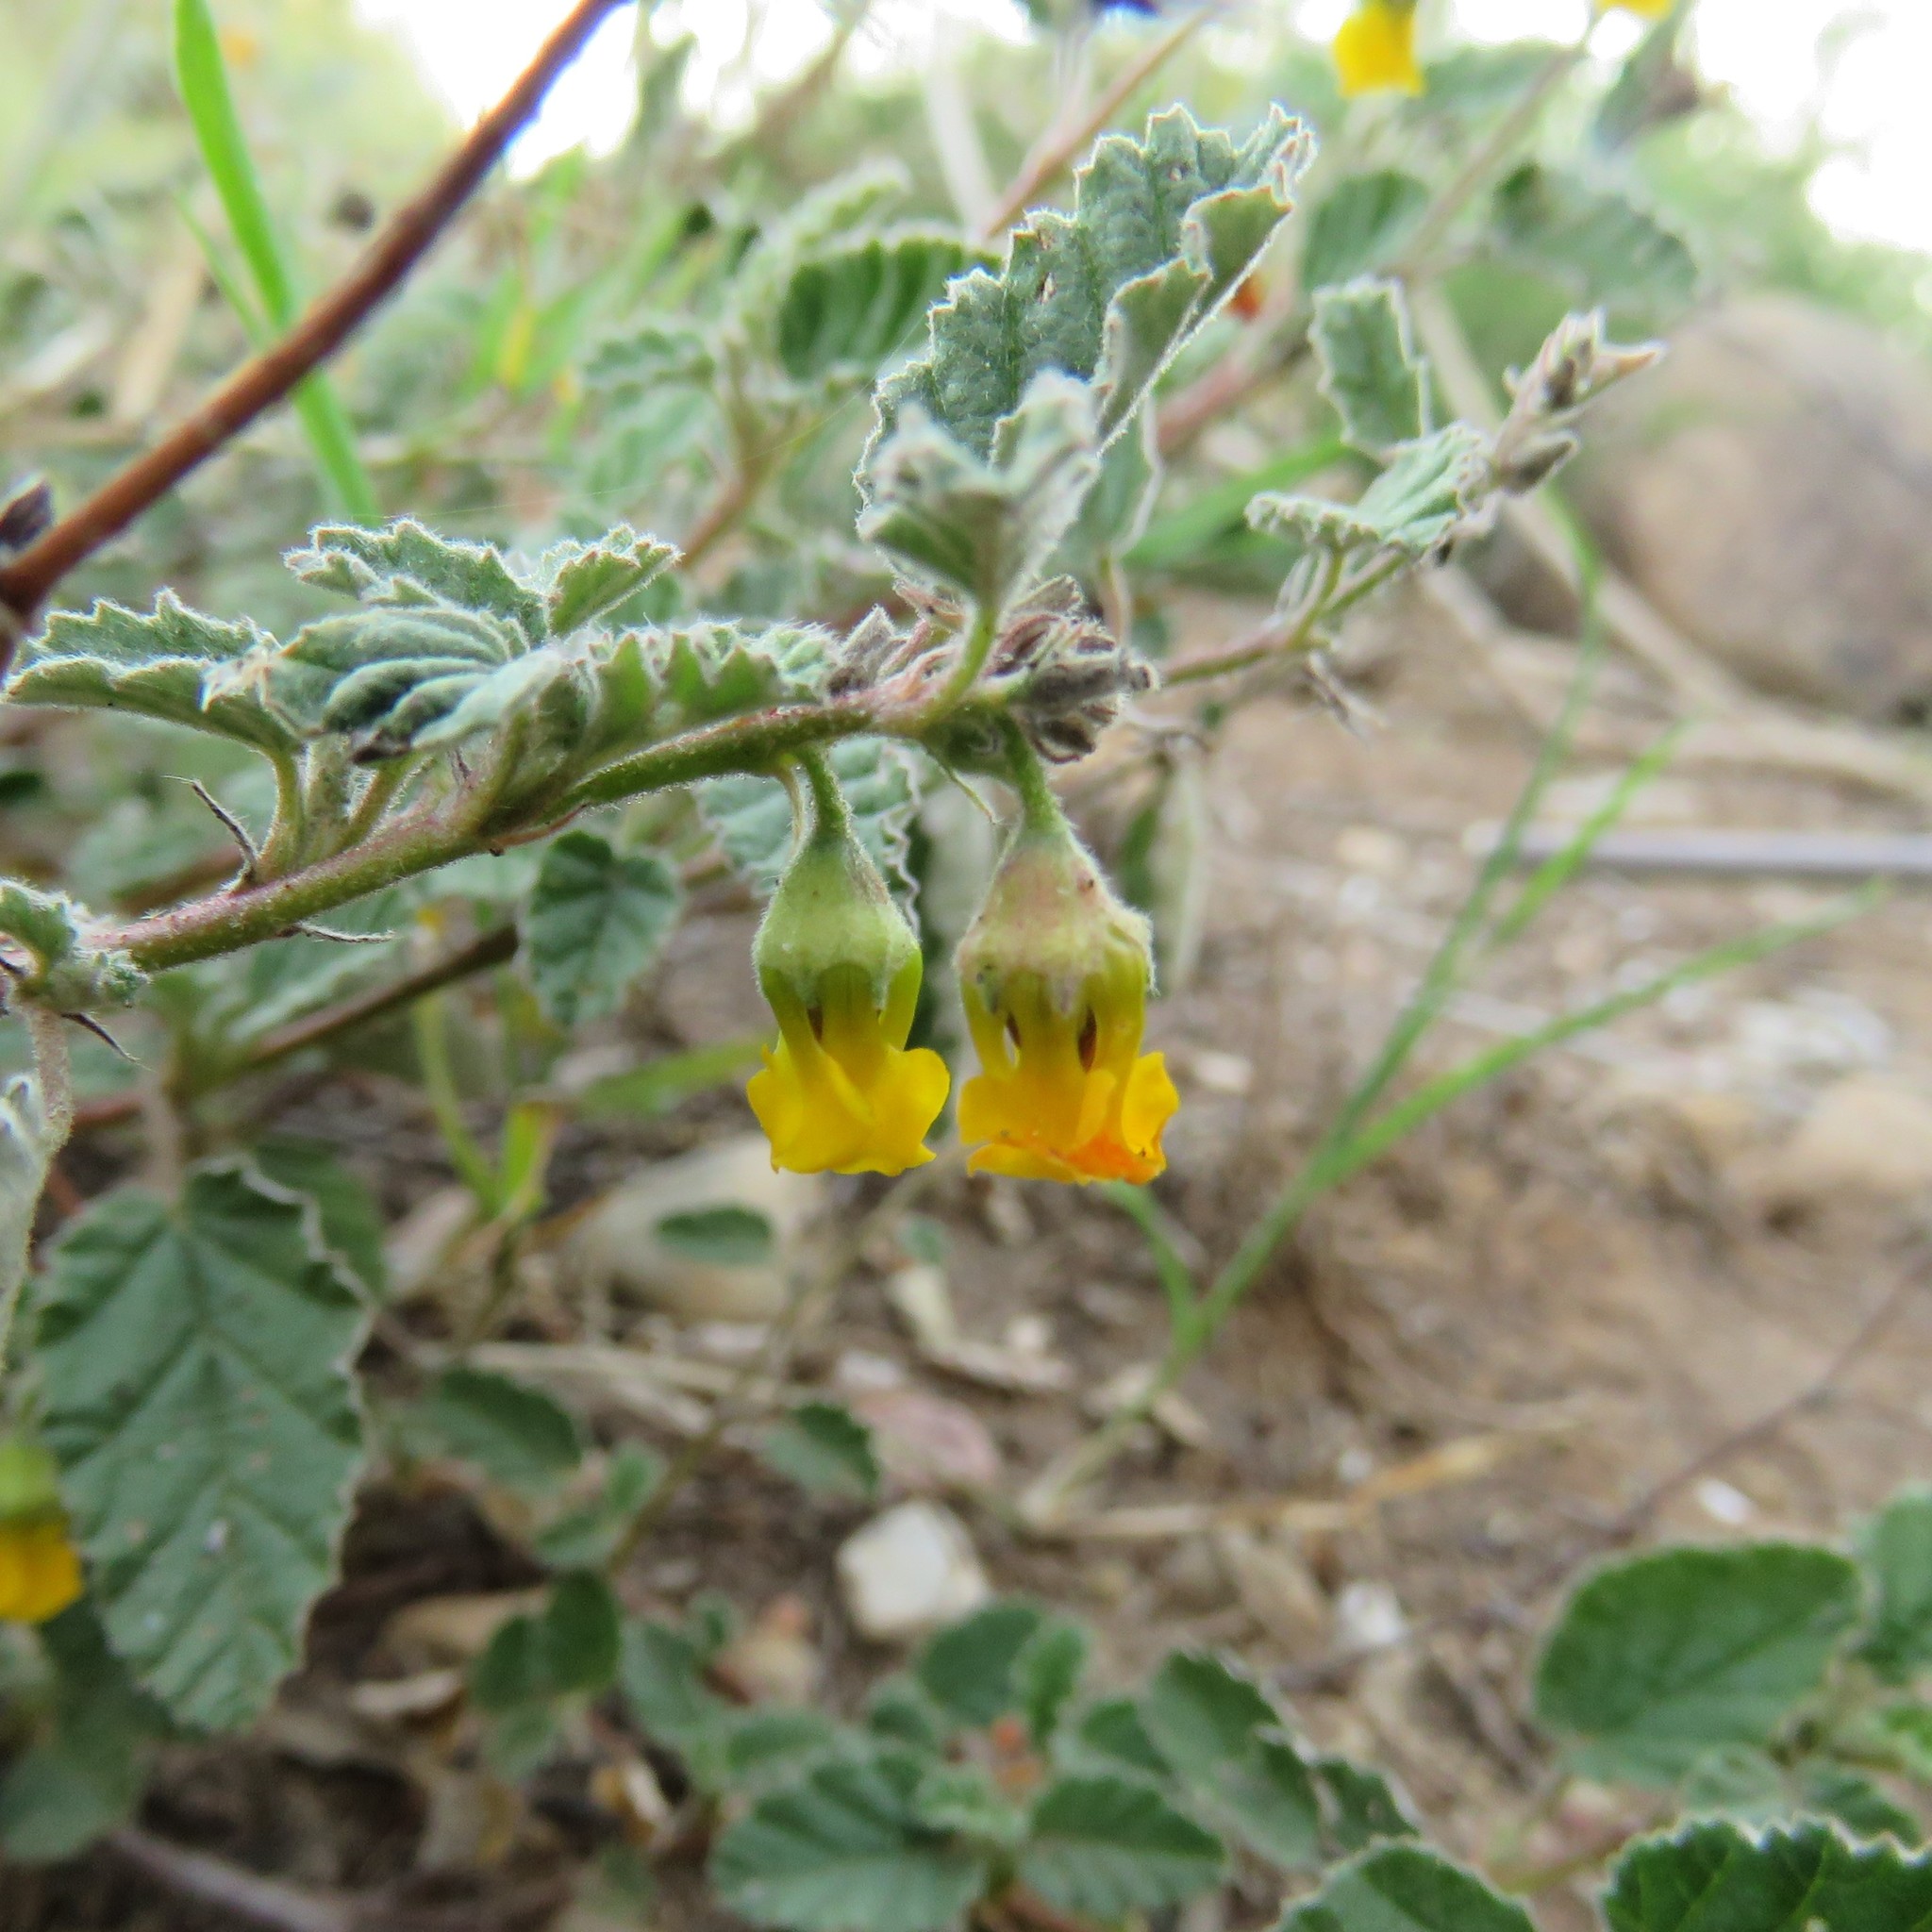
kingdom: Plantae
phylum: Tracheophyta
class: Magnoliopsida
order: Malvales
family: Malvaceae
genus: Hermannia
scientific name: Hermannia althaeoides
